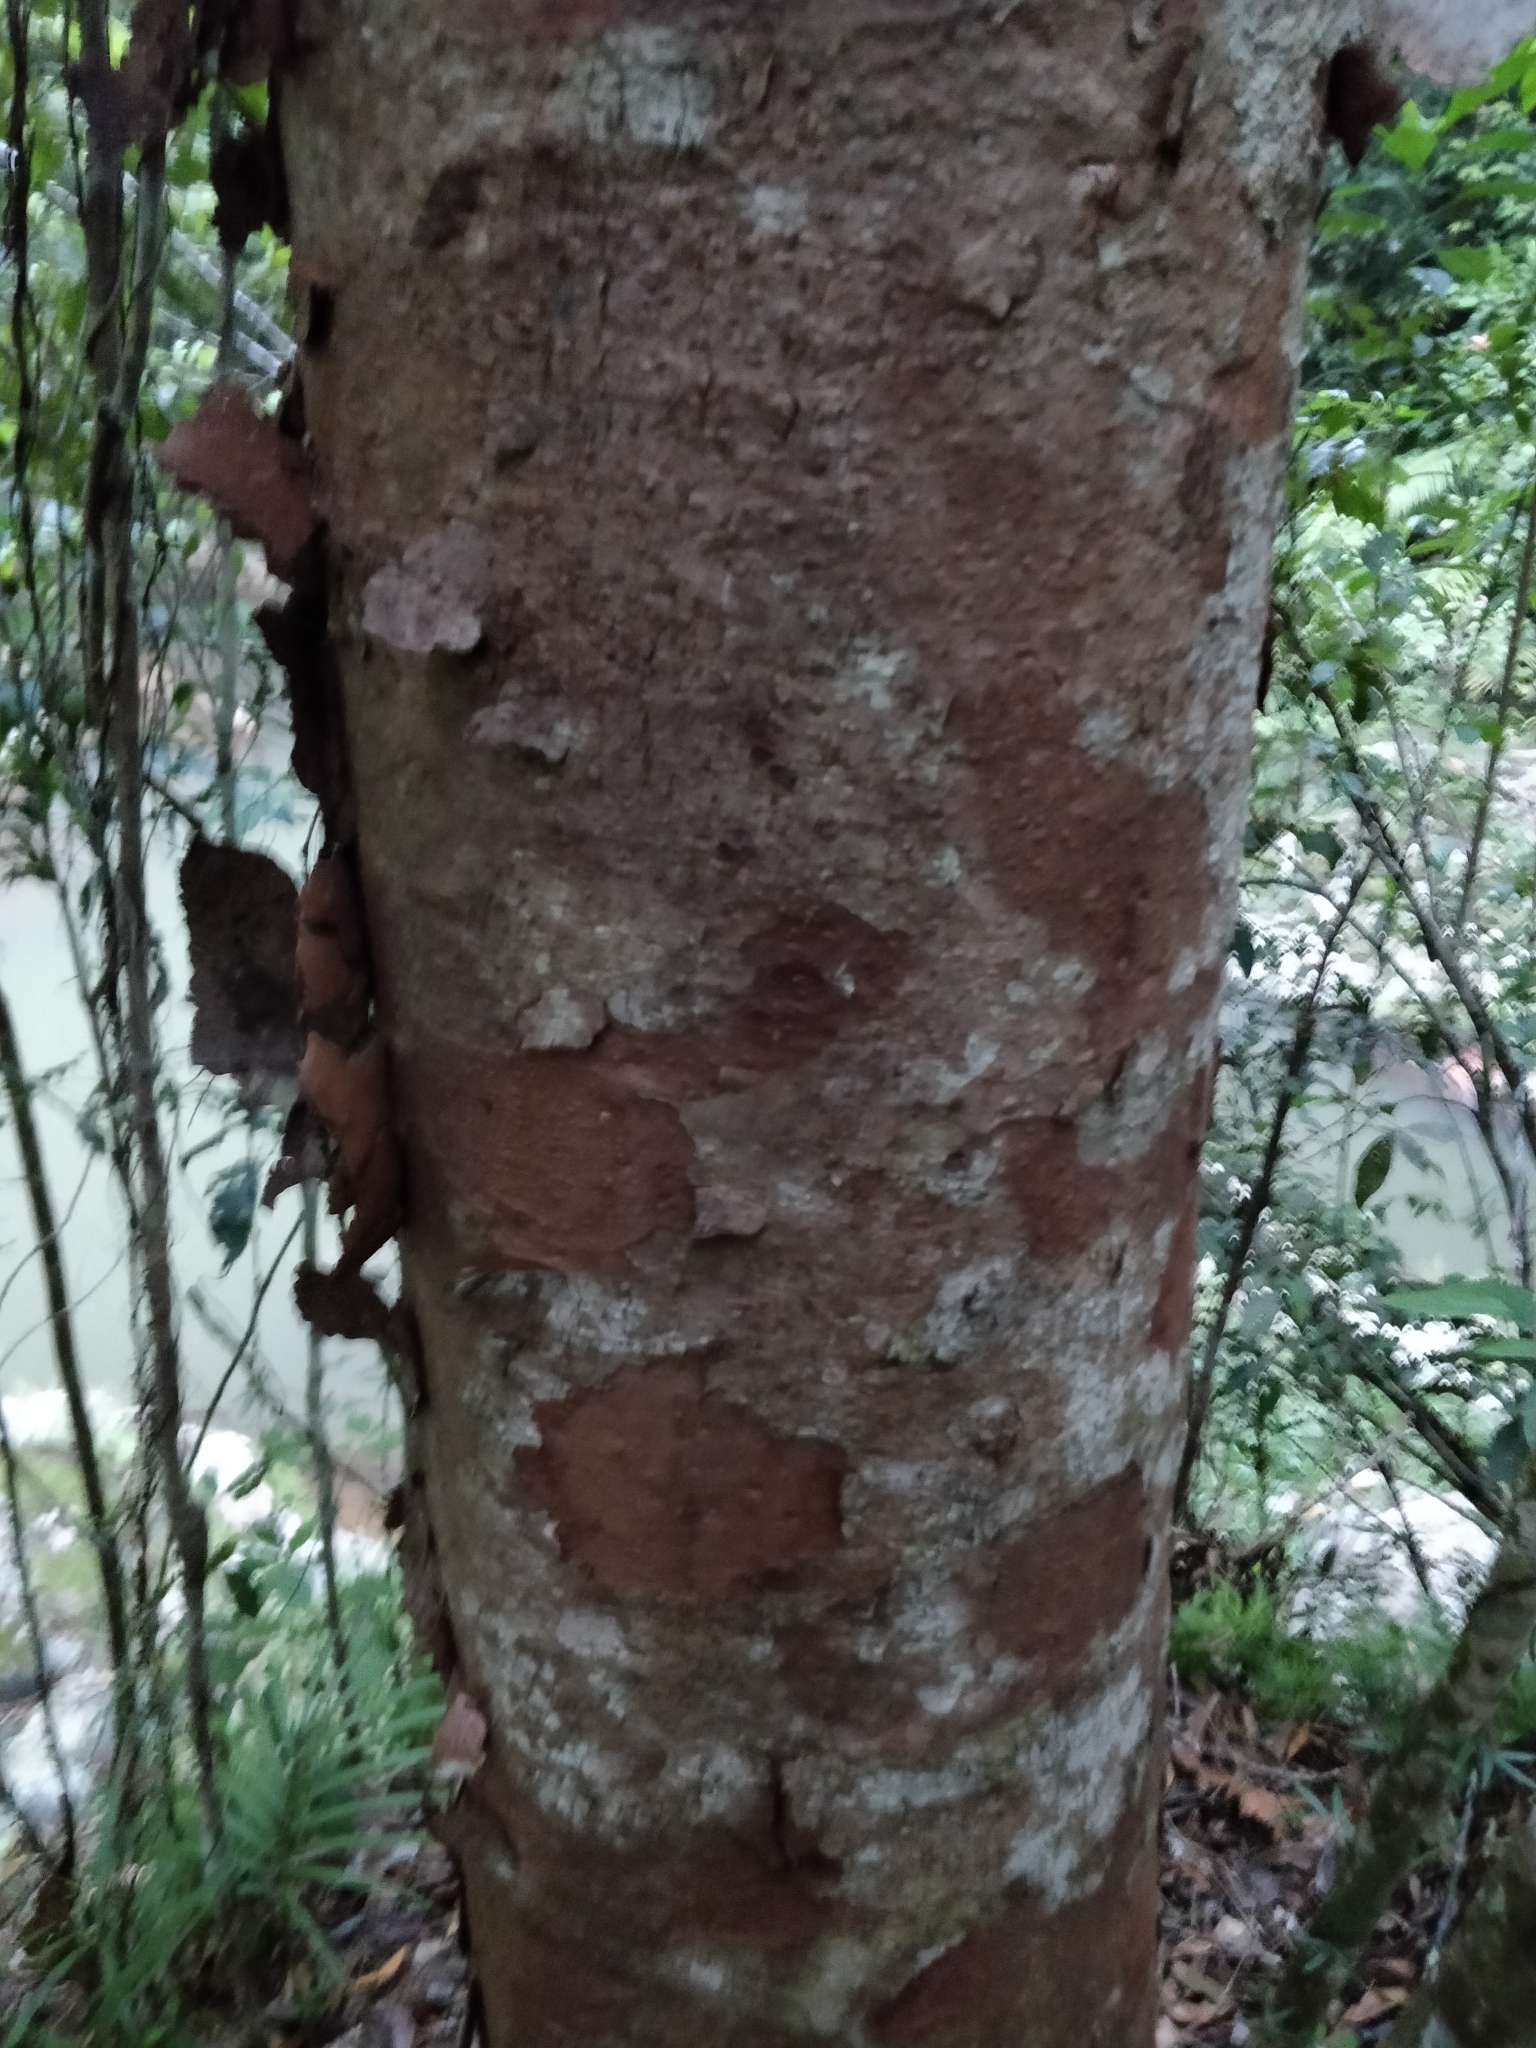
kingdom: Plantae
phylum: Tracheophyta
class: Pinopsida
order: Pinales
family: Araucariaceae
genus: Agathis
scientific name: Agathis robusta
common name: Australian-kauri
